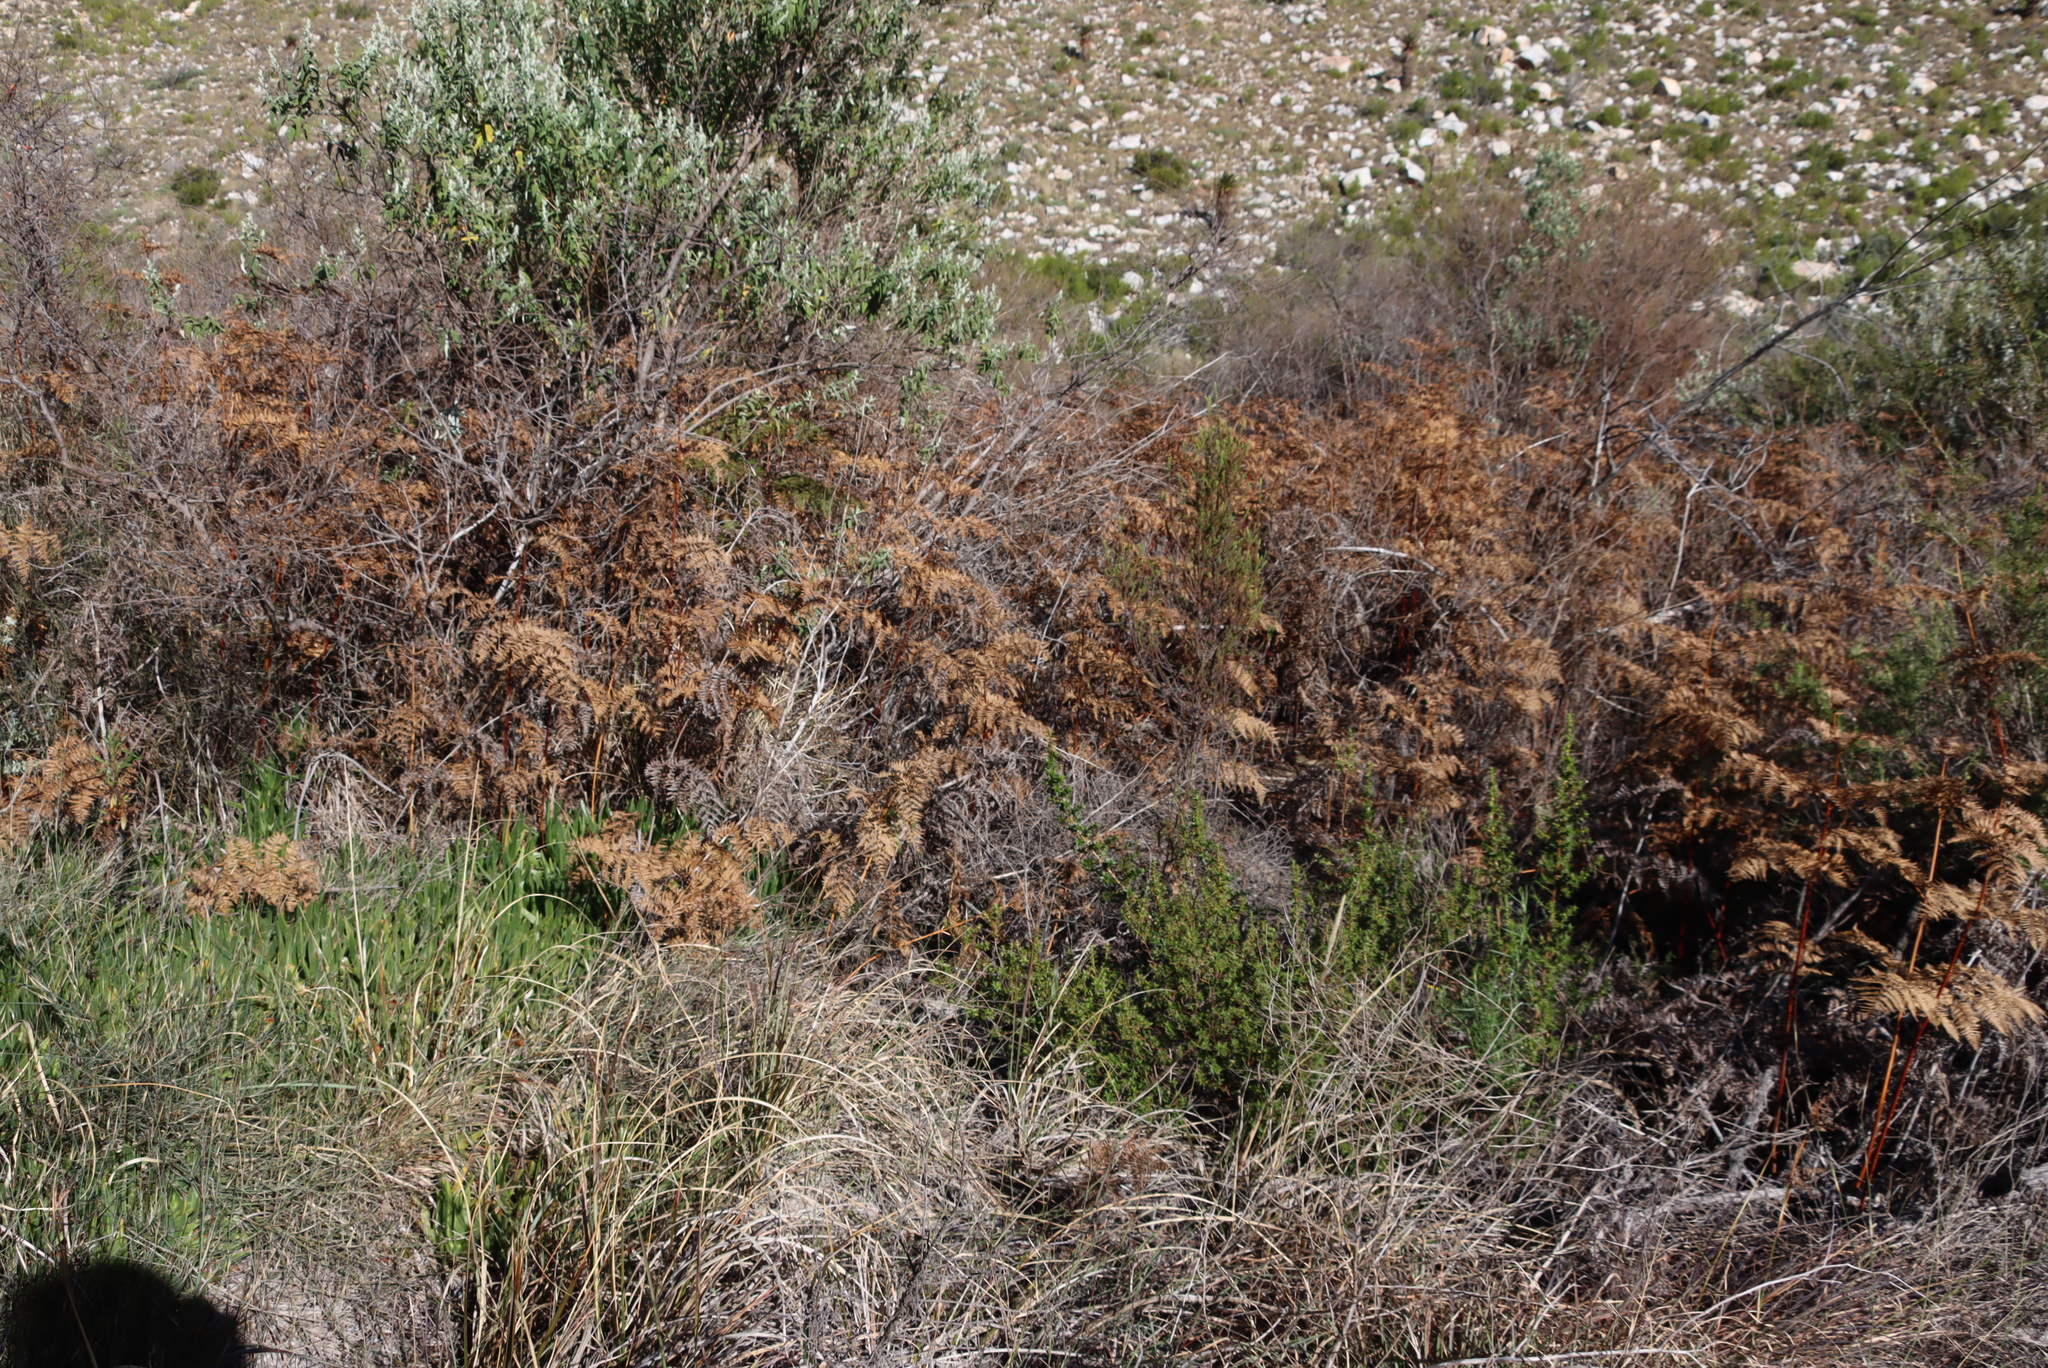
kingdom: Plantae
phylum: Tracheophyta
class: Polypodiopsida
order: Polypodiales
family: Dennstaedtiaceae
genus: Pteridium
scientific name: Pteridium aquilinum
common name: Bracken
